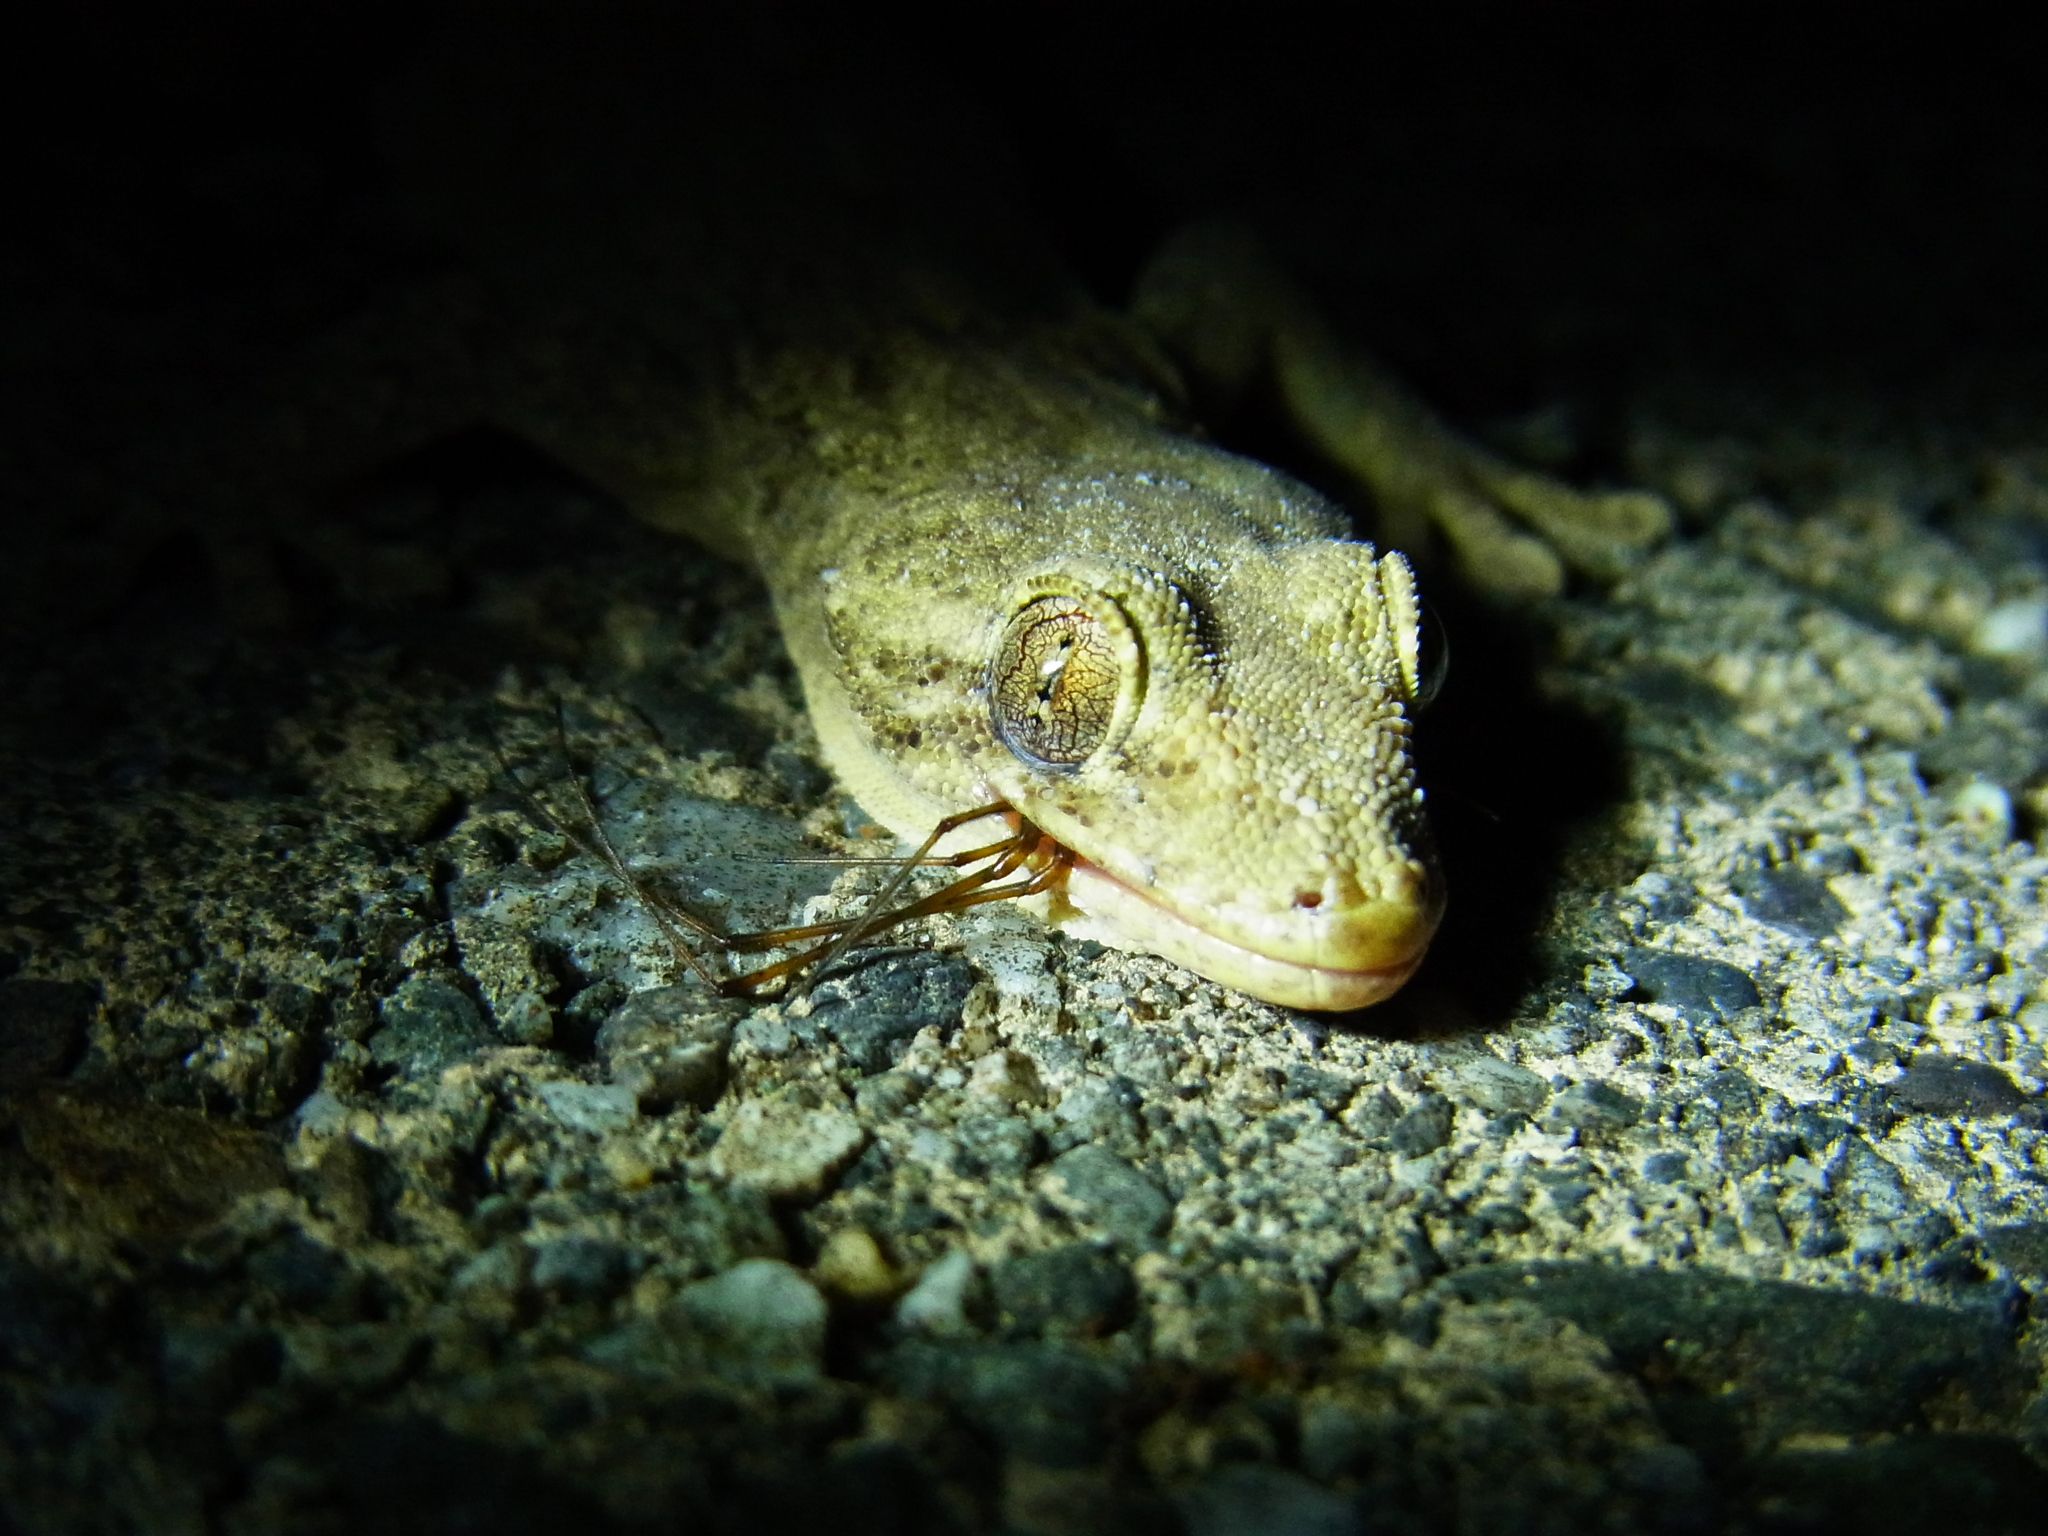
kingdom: Animalia
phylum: Chordata
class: Squamata
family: Gekkonidae
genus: Gekko
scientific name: Gekko japonicus
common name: Schlegel's japanese gecko
